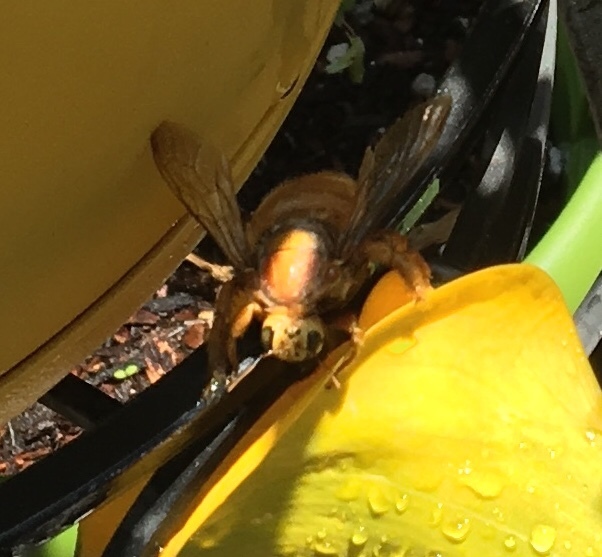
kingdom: Animalia
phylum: Arthropoda
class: Insecta
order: Hymenoptera
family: Apidae
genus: Xylocopa
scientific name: Xylocopa sonorina
